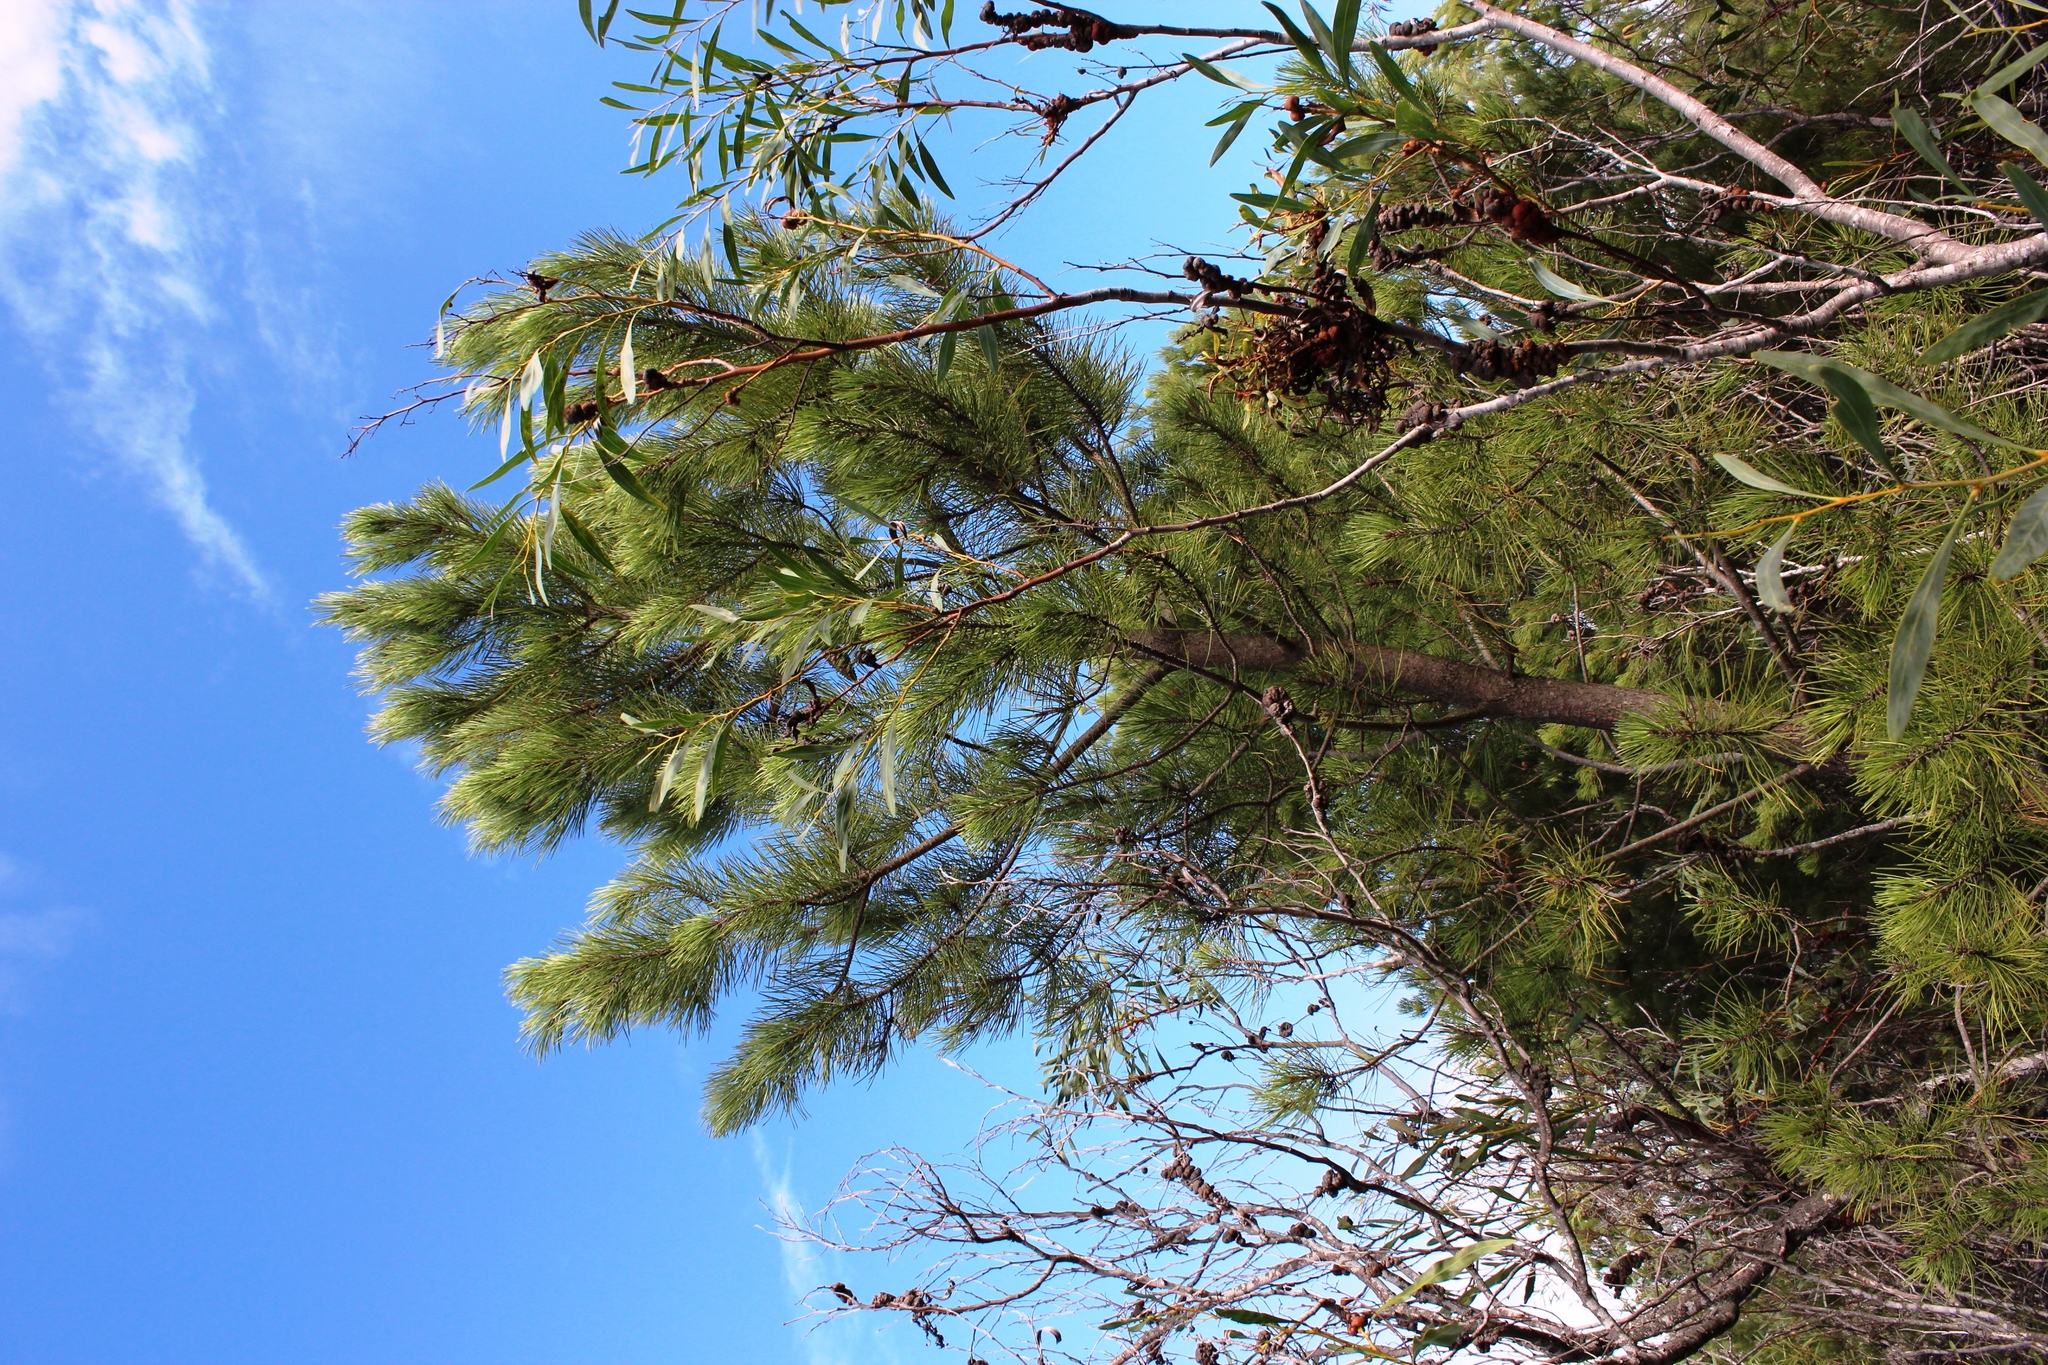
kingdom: Plantae
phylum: Tracheophyta
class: Pinopsida
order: Pinales
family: Pinaceae
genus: Pinus
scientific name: Pinus pinaster
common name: Maritime pine
